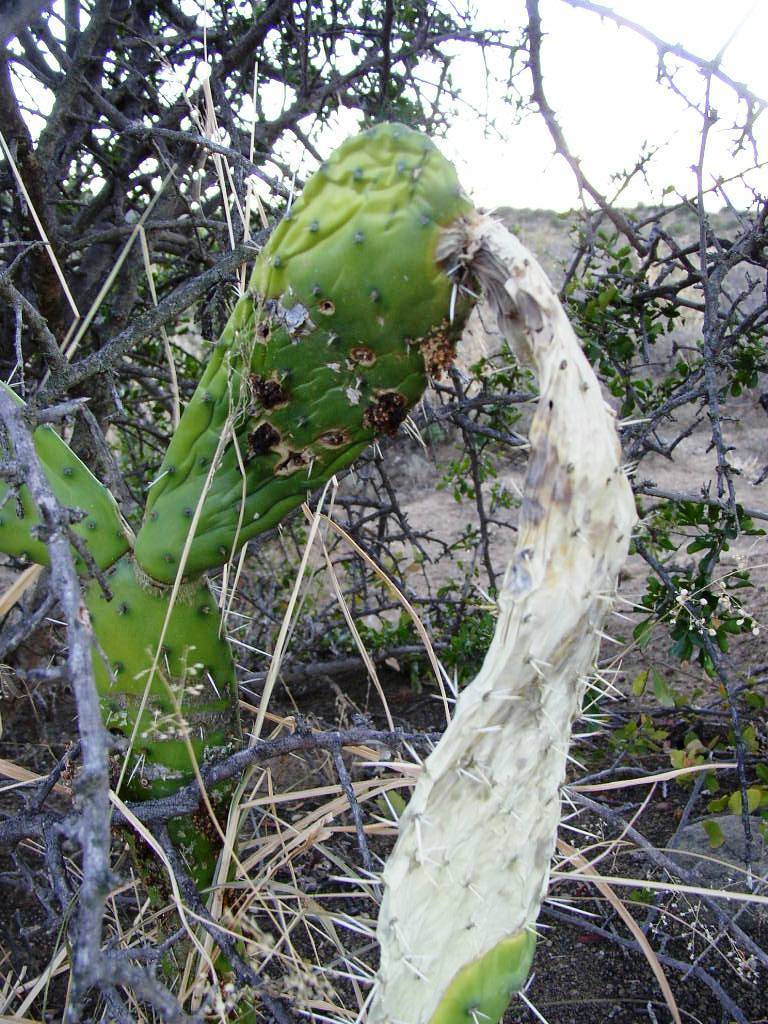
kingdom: Animalia
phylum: Arthropoda
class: Insecta
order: Lepidoptera
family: Pyralidae
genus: Cactoblastis
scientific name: Cactoblastis cactorum
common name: Cactus moth
